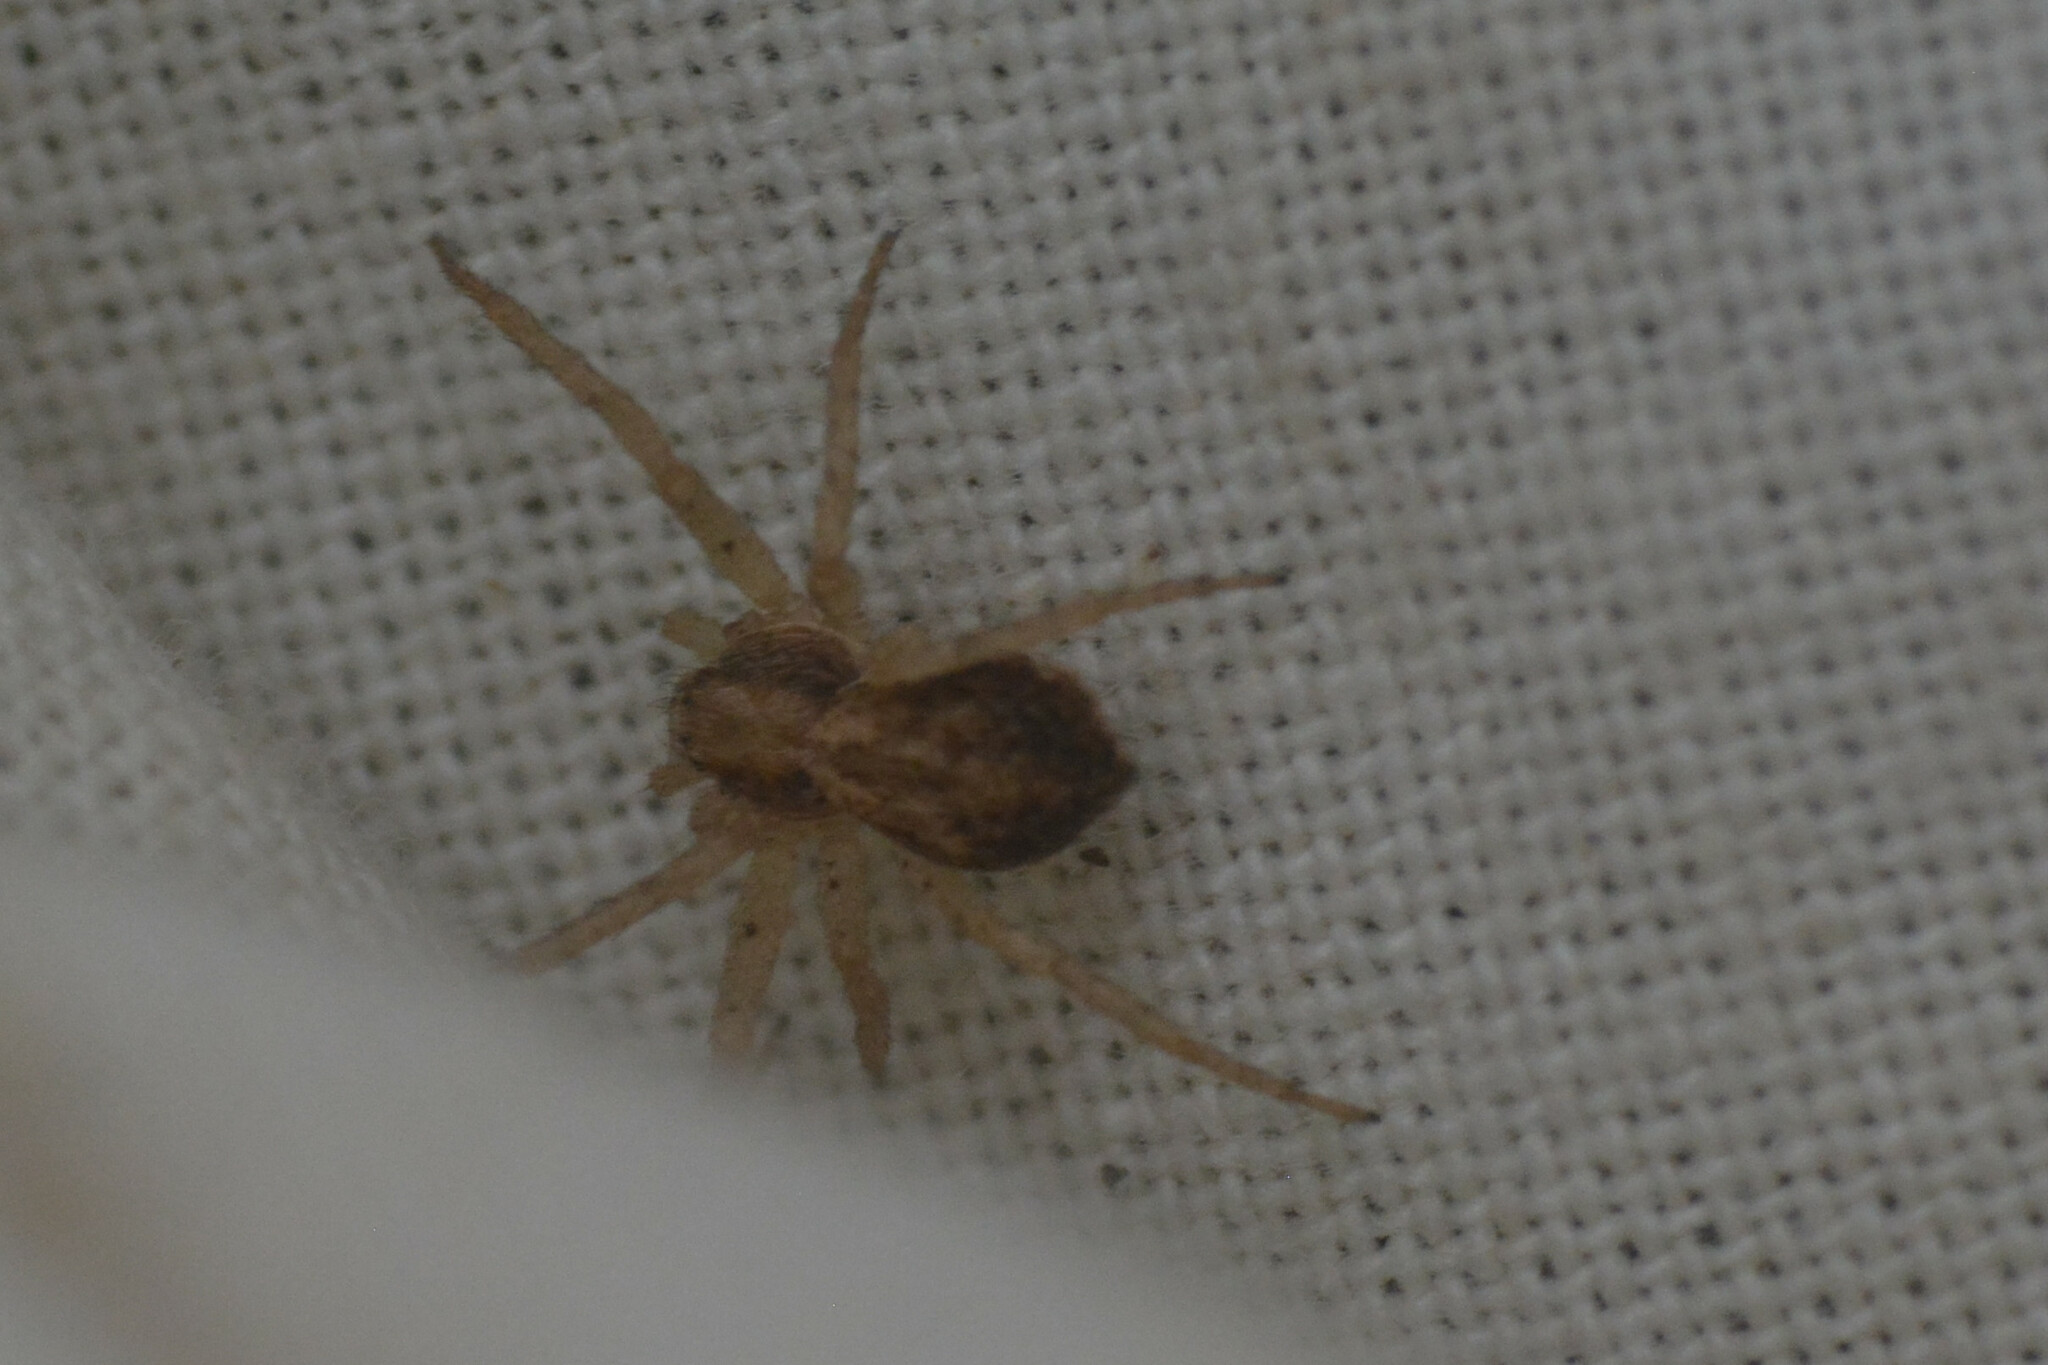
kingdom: Animalia
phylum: Arthropoda
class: Arachnida
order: Araneae
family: Philodromidae
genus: Philodromus
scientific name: Philodromus dispar
